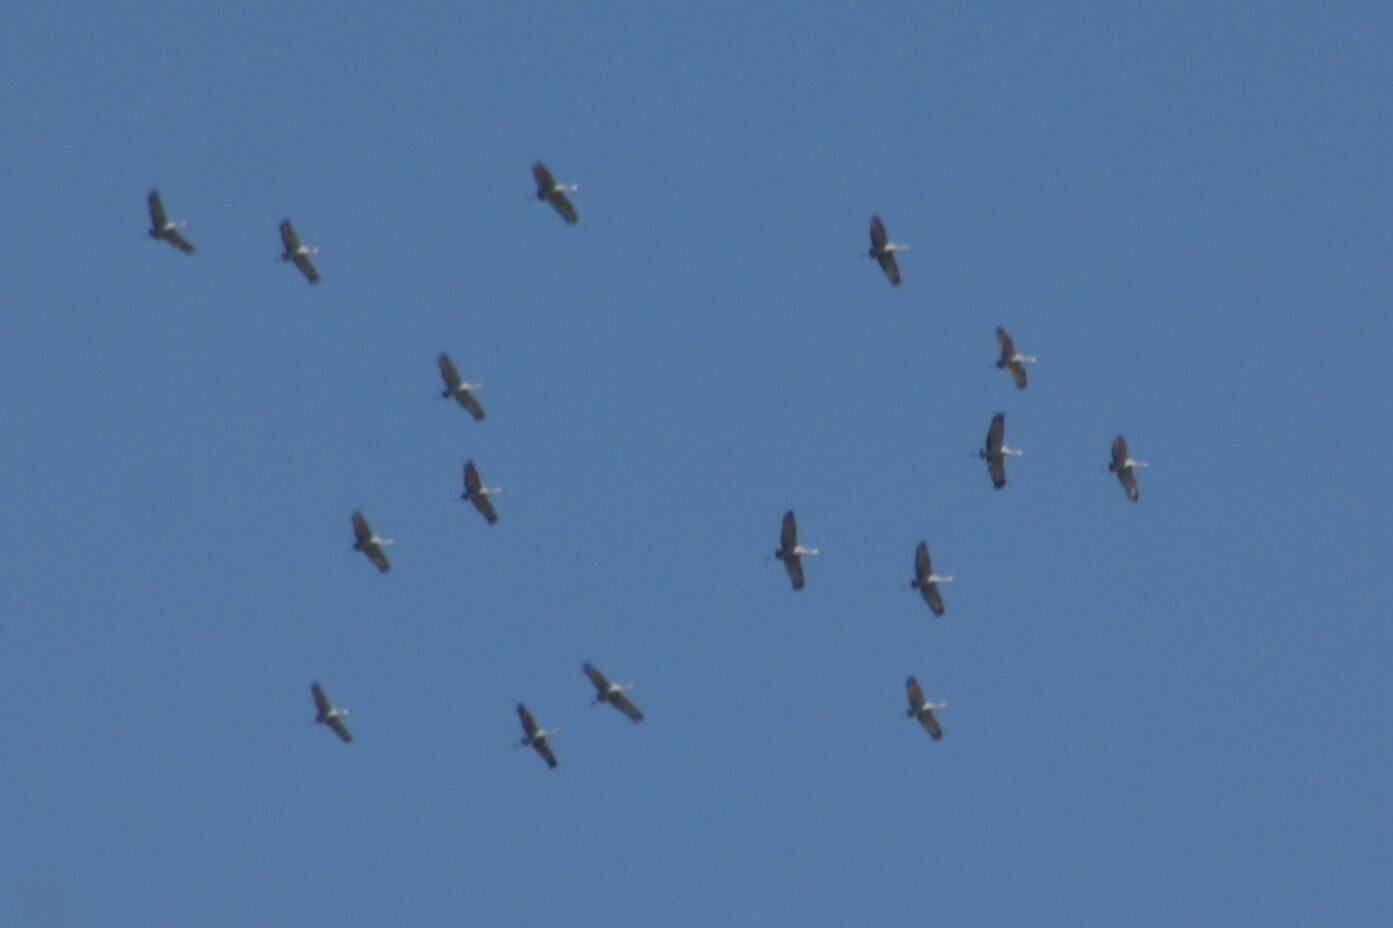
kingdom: Animalia
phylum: Chordata
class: Aves
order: Gruiformes
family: Gruidae
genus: Grus
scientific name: Grus canadensis
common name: Sandhill crane
